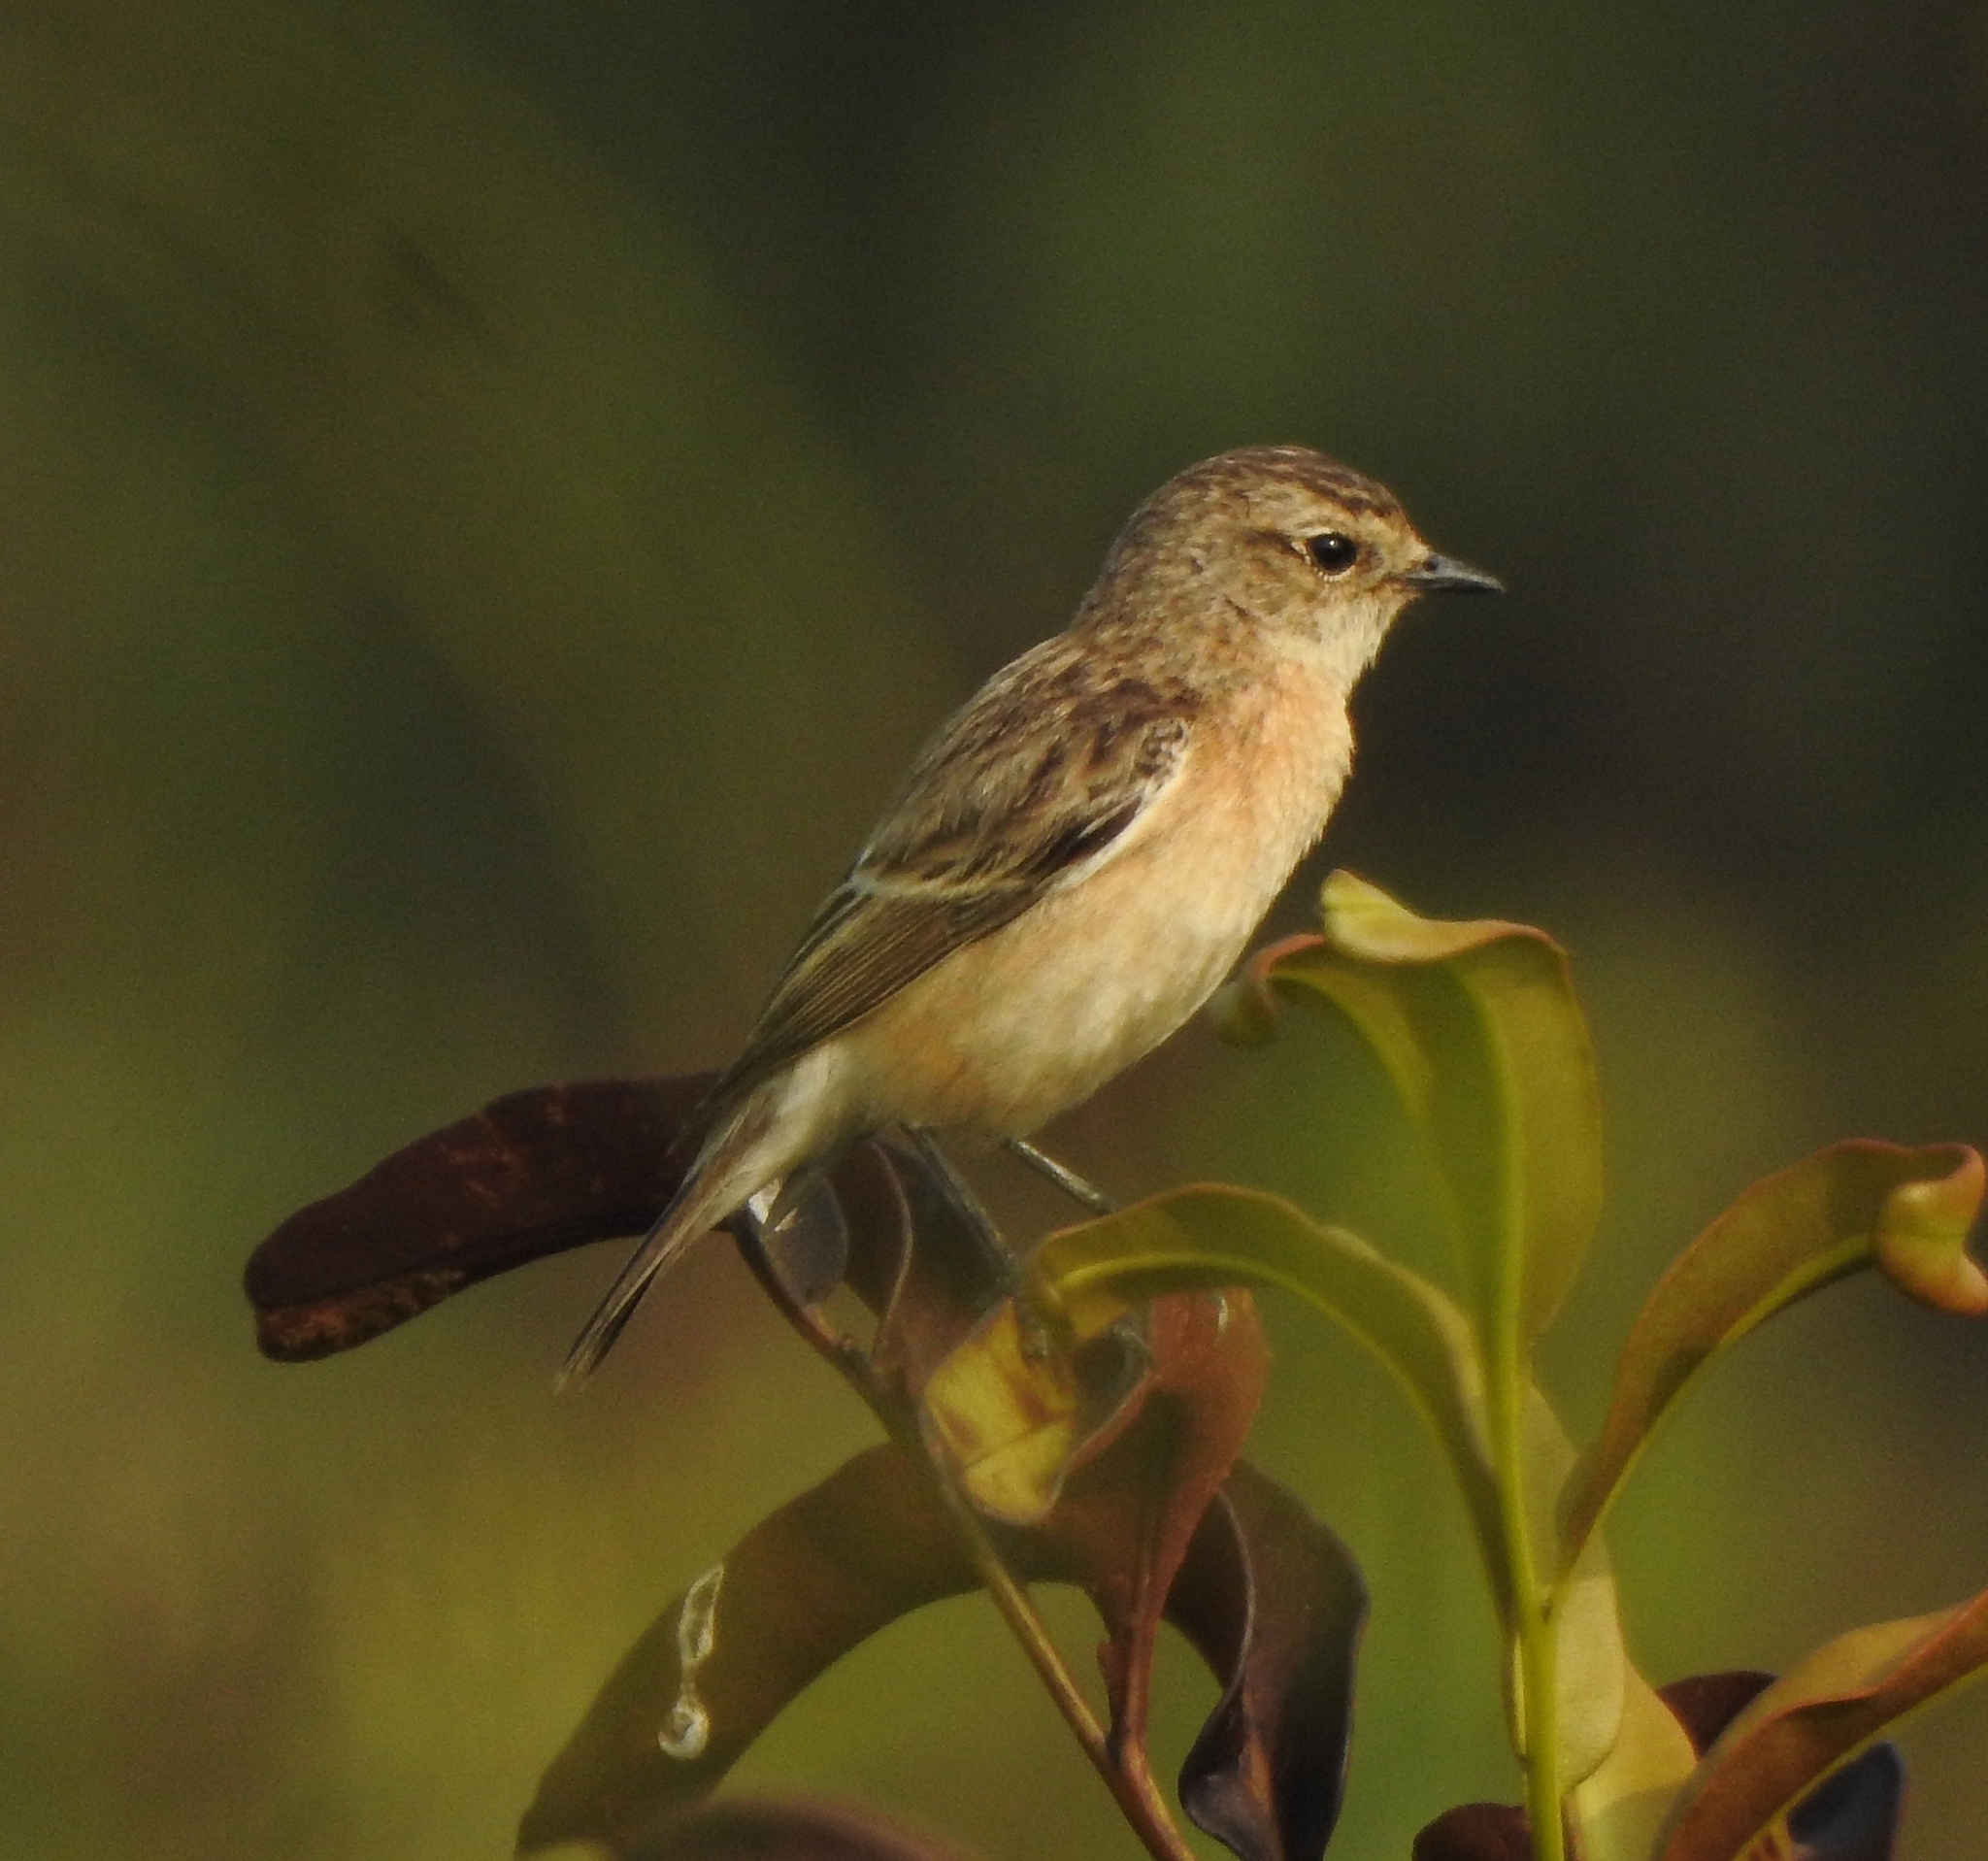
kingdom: Animalia
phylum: Chordata
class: Aves
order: Passeriformes
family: Muscicapidae
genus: Saxicola
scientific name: Saxicola maurus
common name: Siberian stonechat
